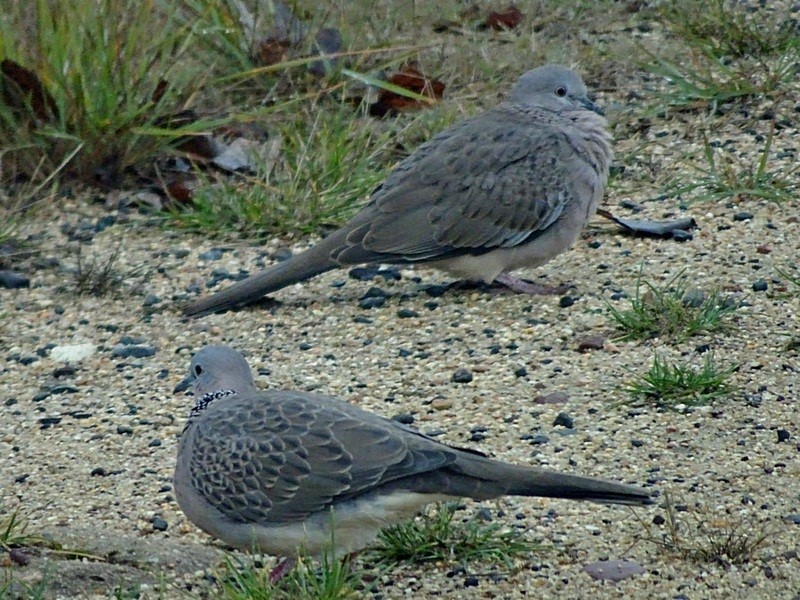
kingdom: Animalia
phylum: Chordata
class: Aves
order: Columbiformes
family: Columbidae
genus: Spilopelia
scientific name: Spilopelia chinensis
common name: Spotted dove
